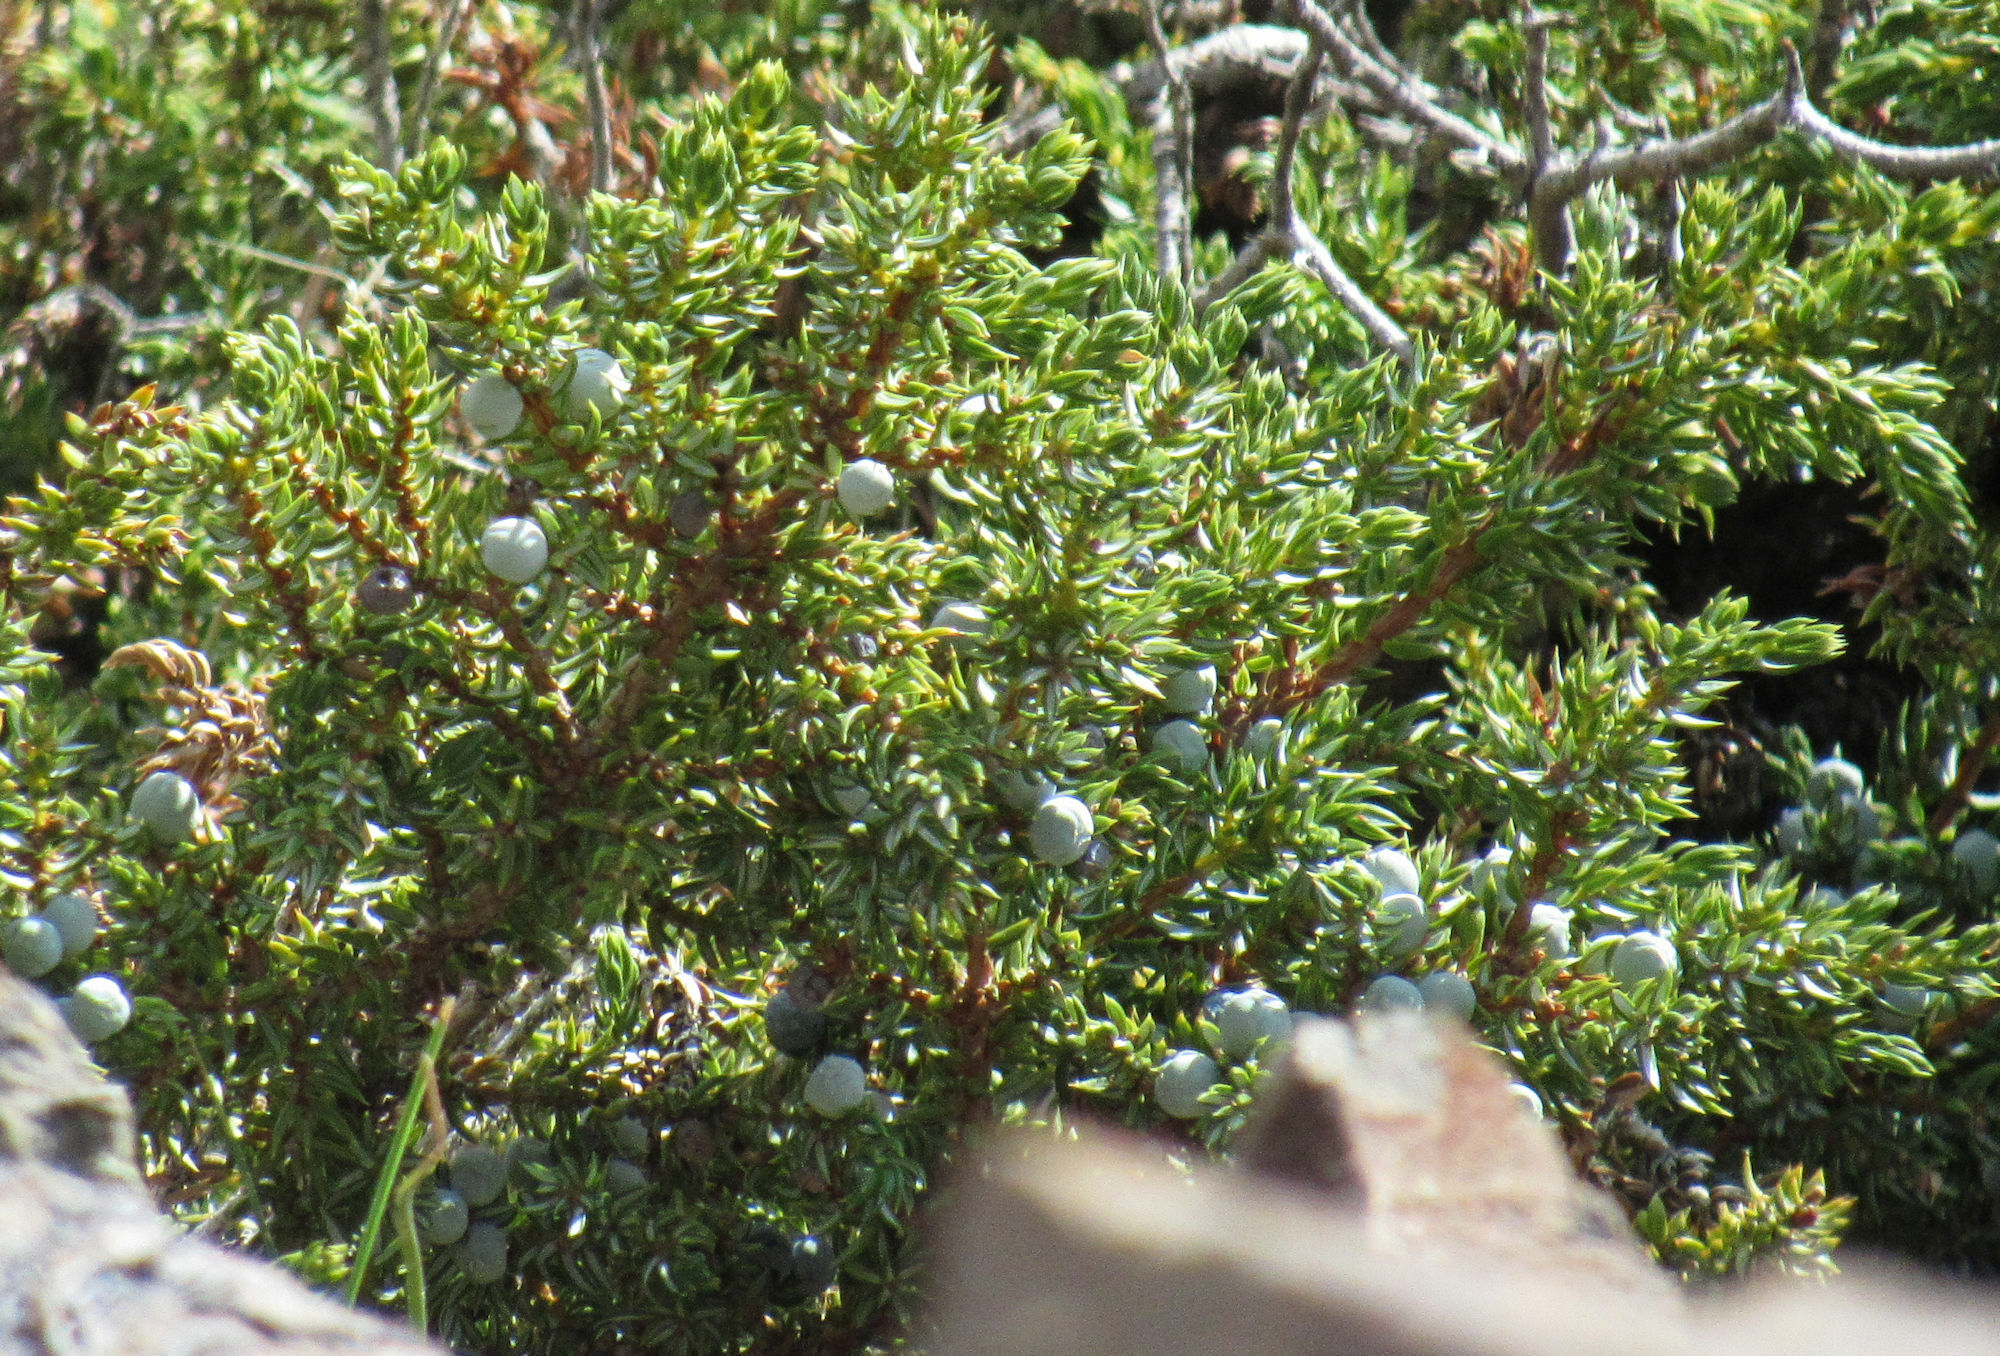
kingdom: Plantae
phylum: Tracheophyta
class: Pinopsida
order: Pinales
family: Cupressaceae
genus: Juniperus
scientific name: Juniperus communis
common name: Common juniper
